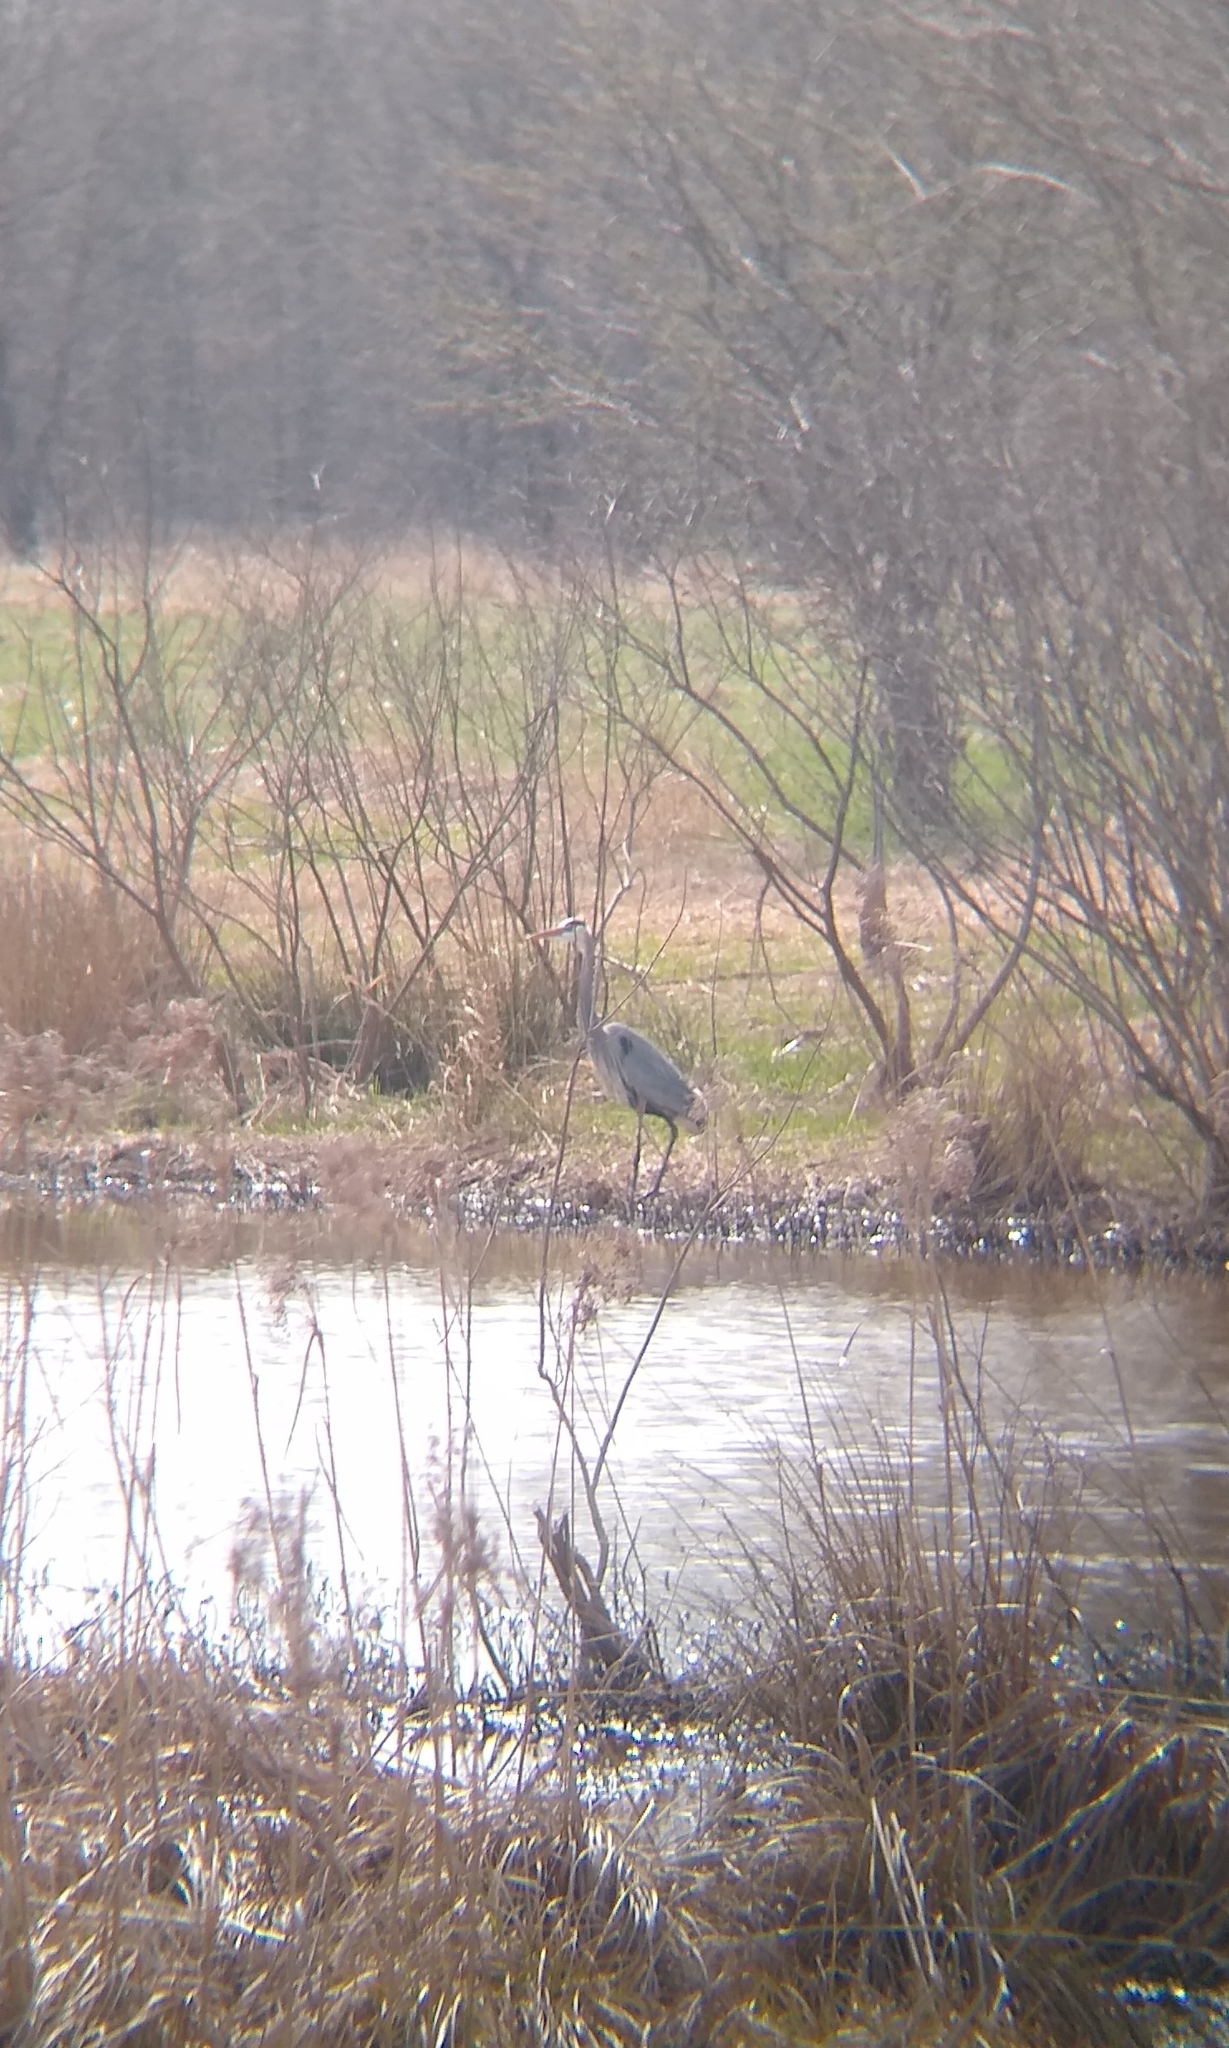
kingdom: Animalia
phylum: Chordata
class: Aves
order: Pelecaniformes
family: Ardeidae
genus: Ardea
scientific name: Ardea herodias
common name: Great blue heron
